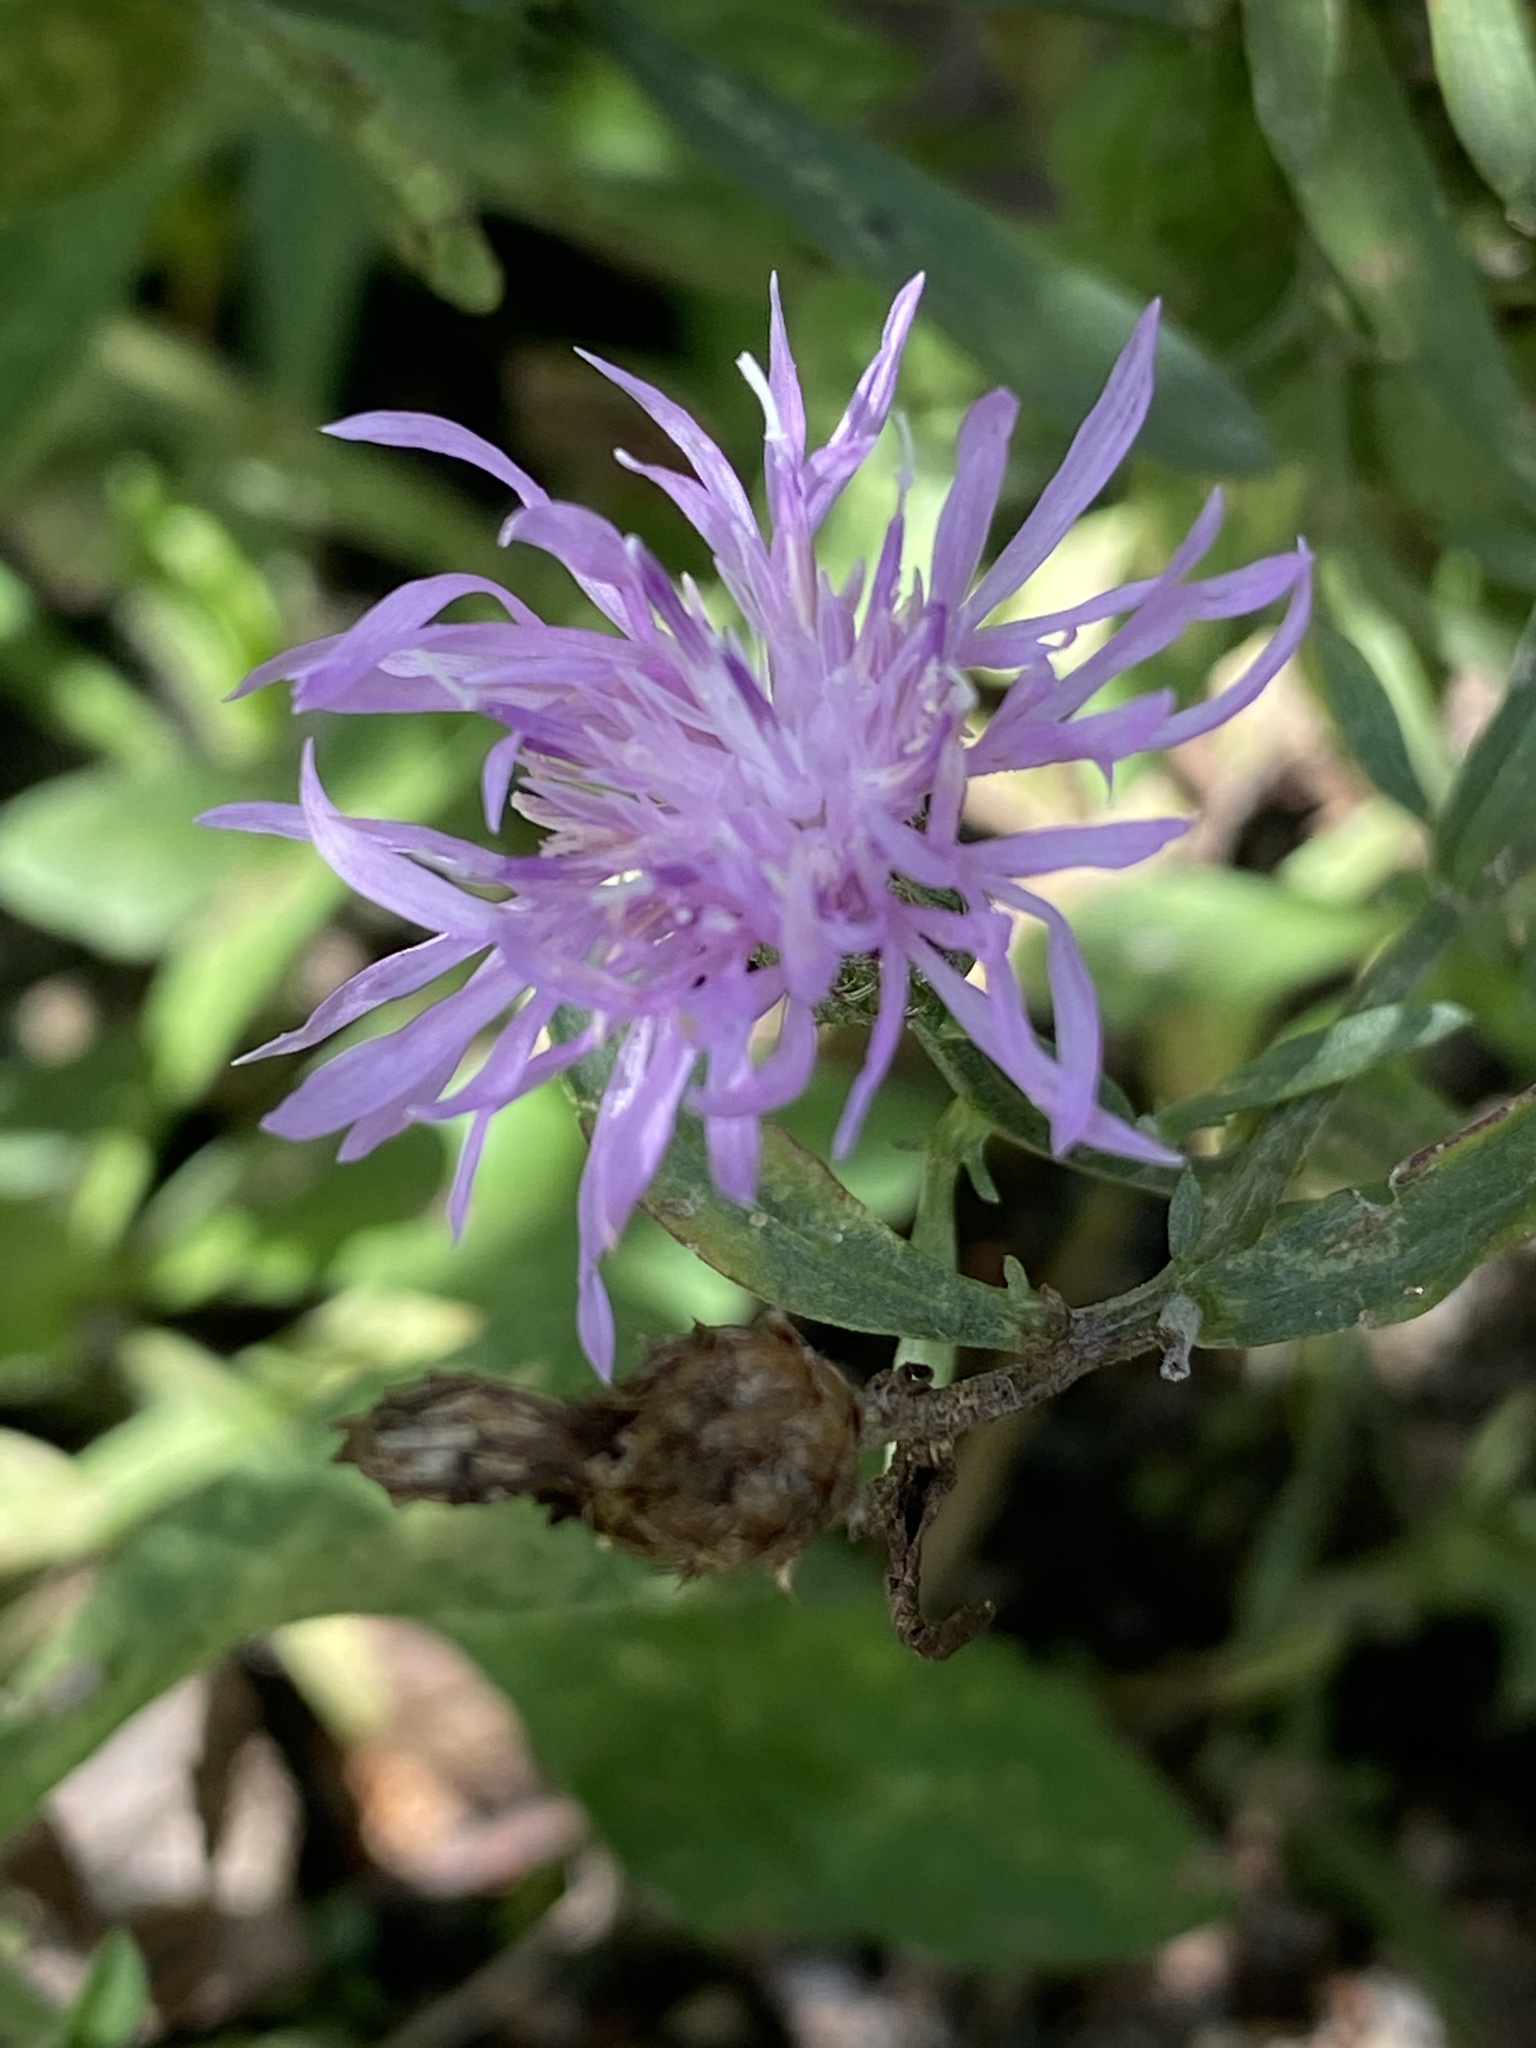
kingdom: Plantae
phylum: Tracheophyta
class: Magnoliopsida
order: Asterales
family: Asteraceae
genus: Centaurea
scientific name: Centaurea stoebe
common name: Spotted knapweed
